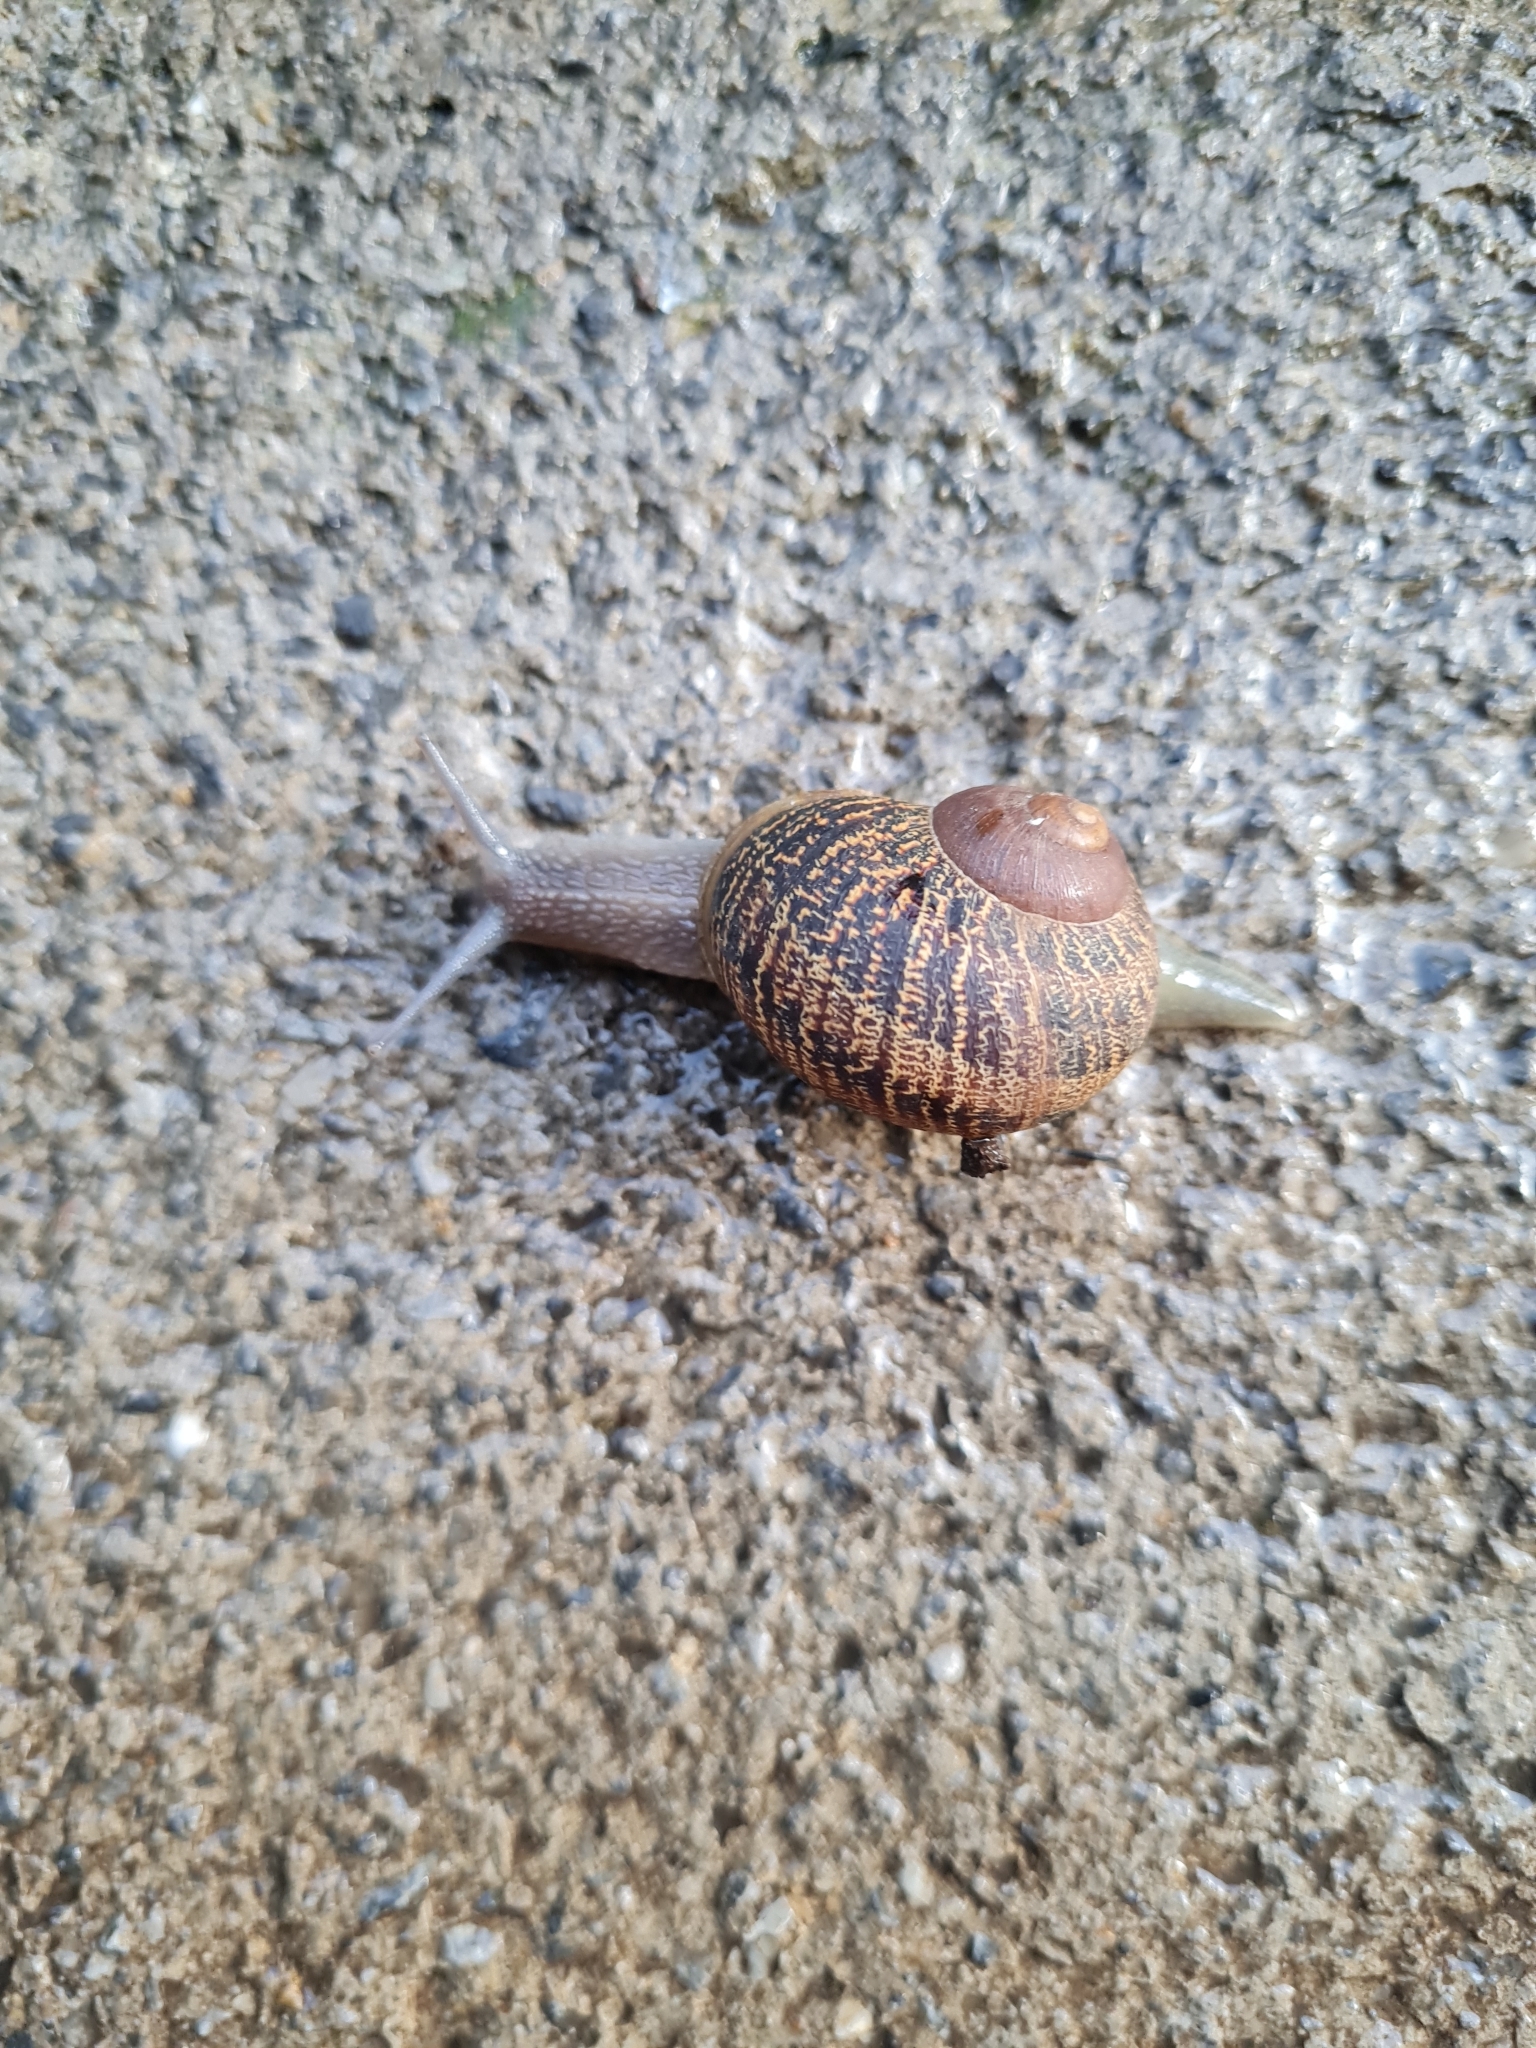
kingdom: Animalia
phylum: Mollusca
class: Gastropoda
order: Stylommatophora
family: Helicidae
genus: Cornu
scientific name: Cornu aspersum
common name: Brown garden snail
